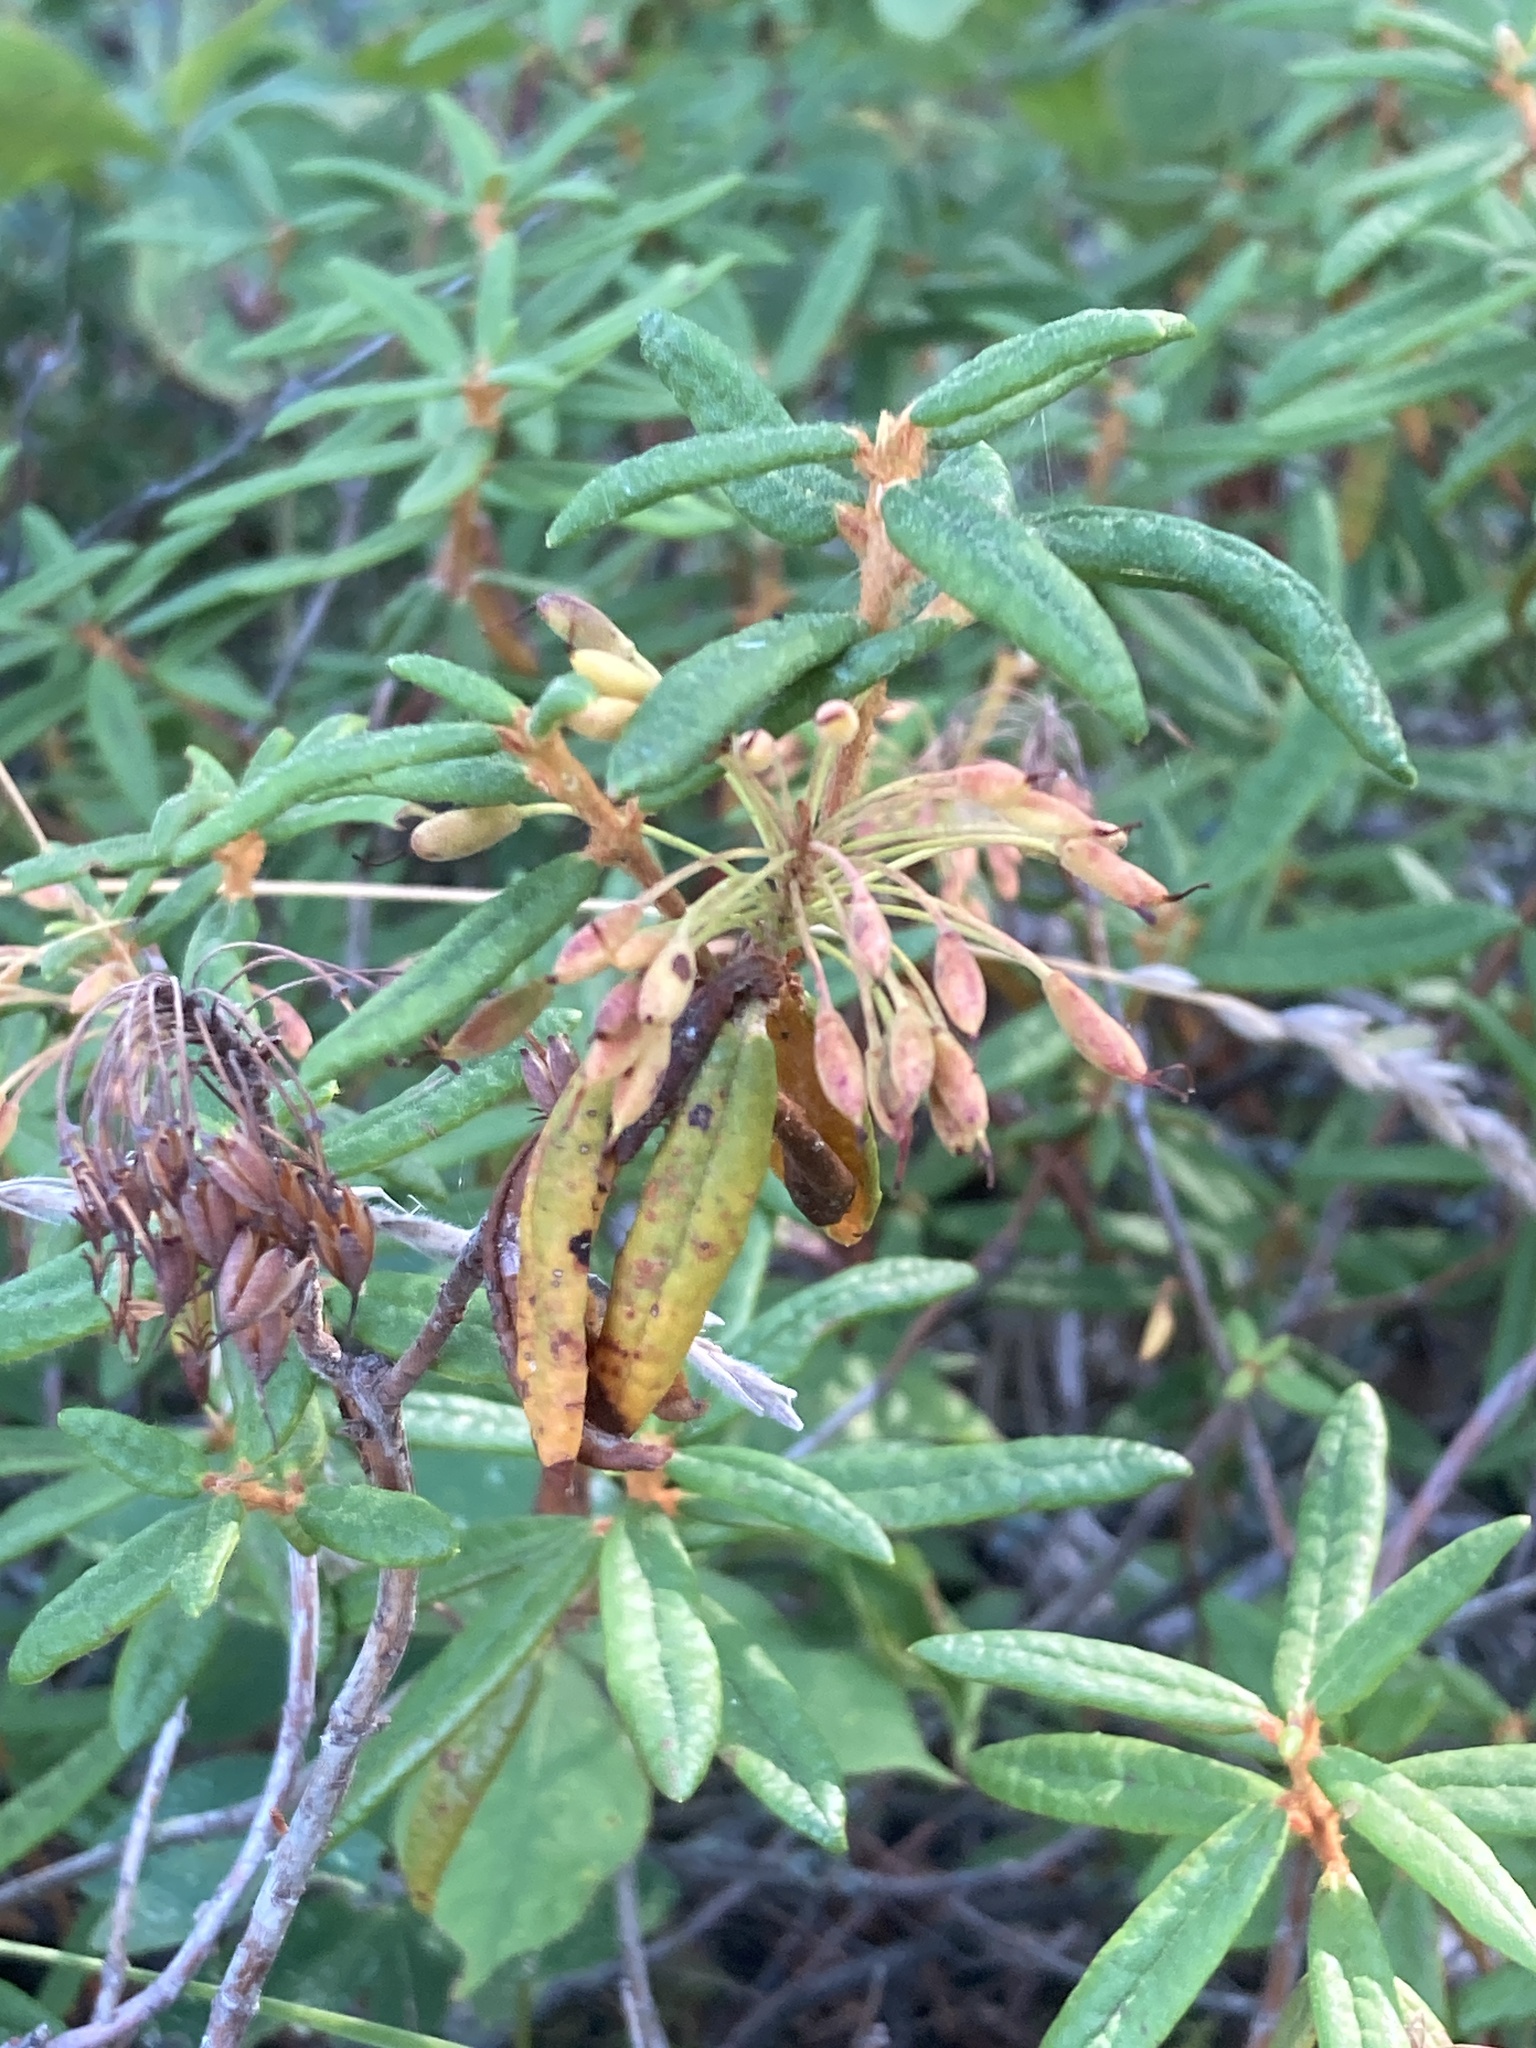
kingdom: Plantae
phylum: Tracheophyta
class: Magnoliopsida
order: Ericales
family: Ericaceae
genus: Rhododendron
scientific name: Rhododendron groenlandicum
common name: Bog labrador tea
